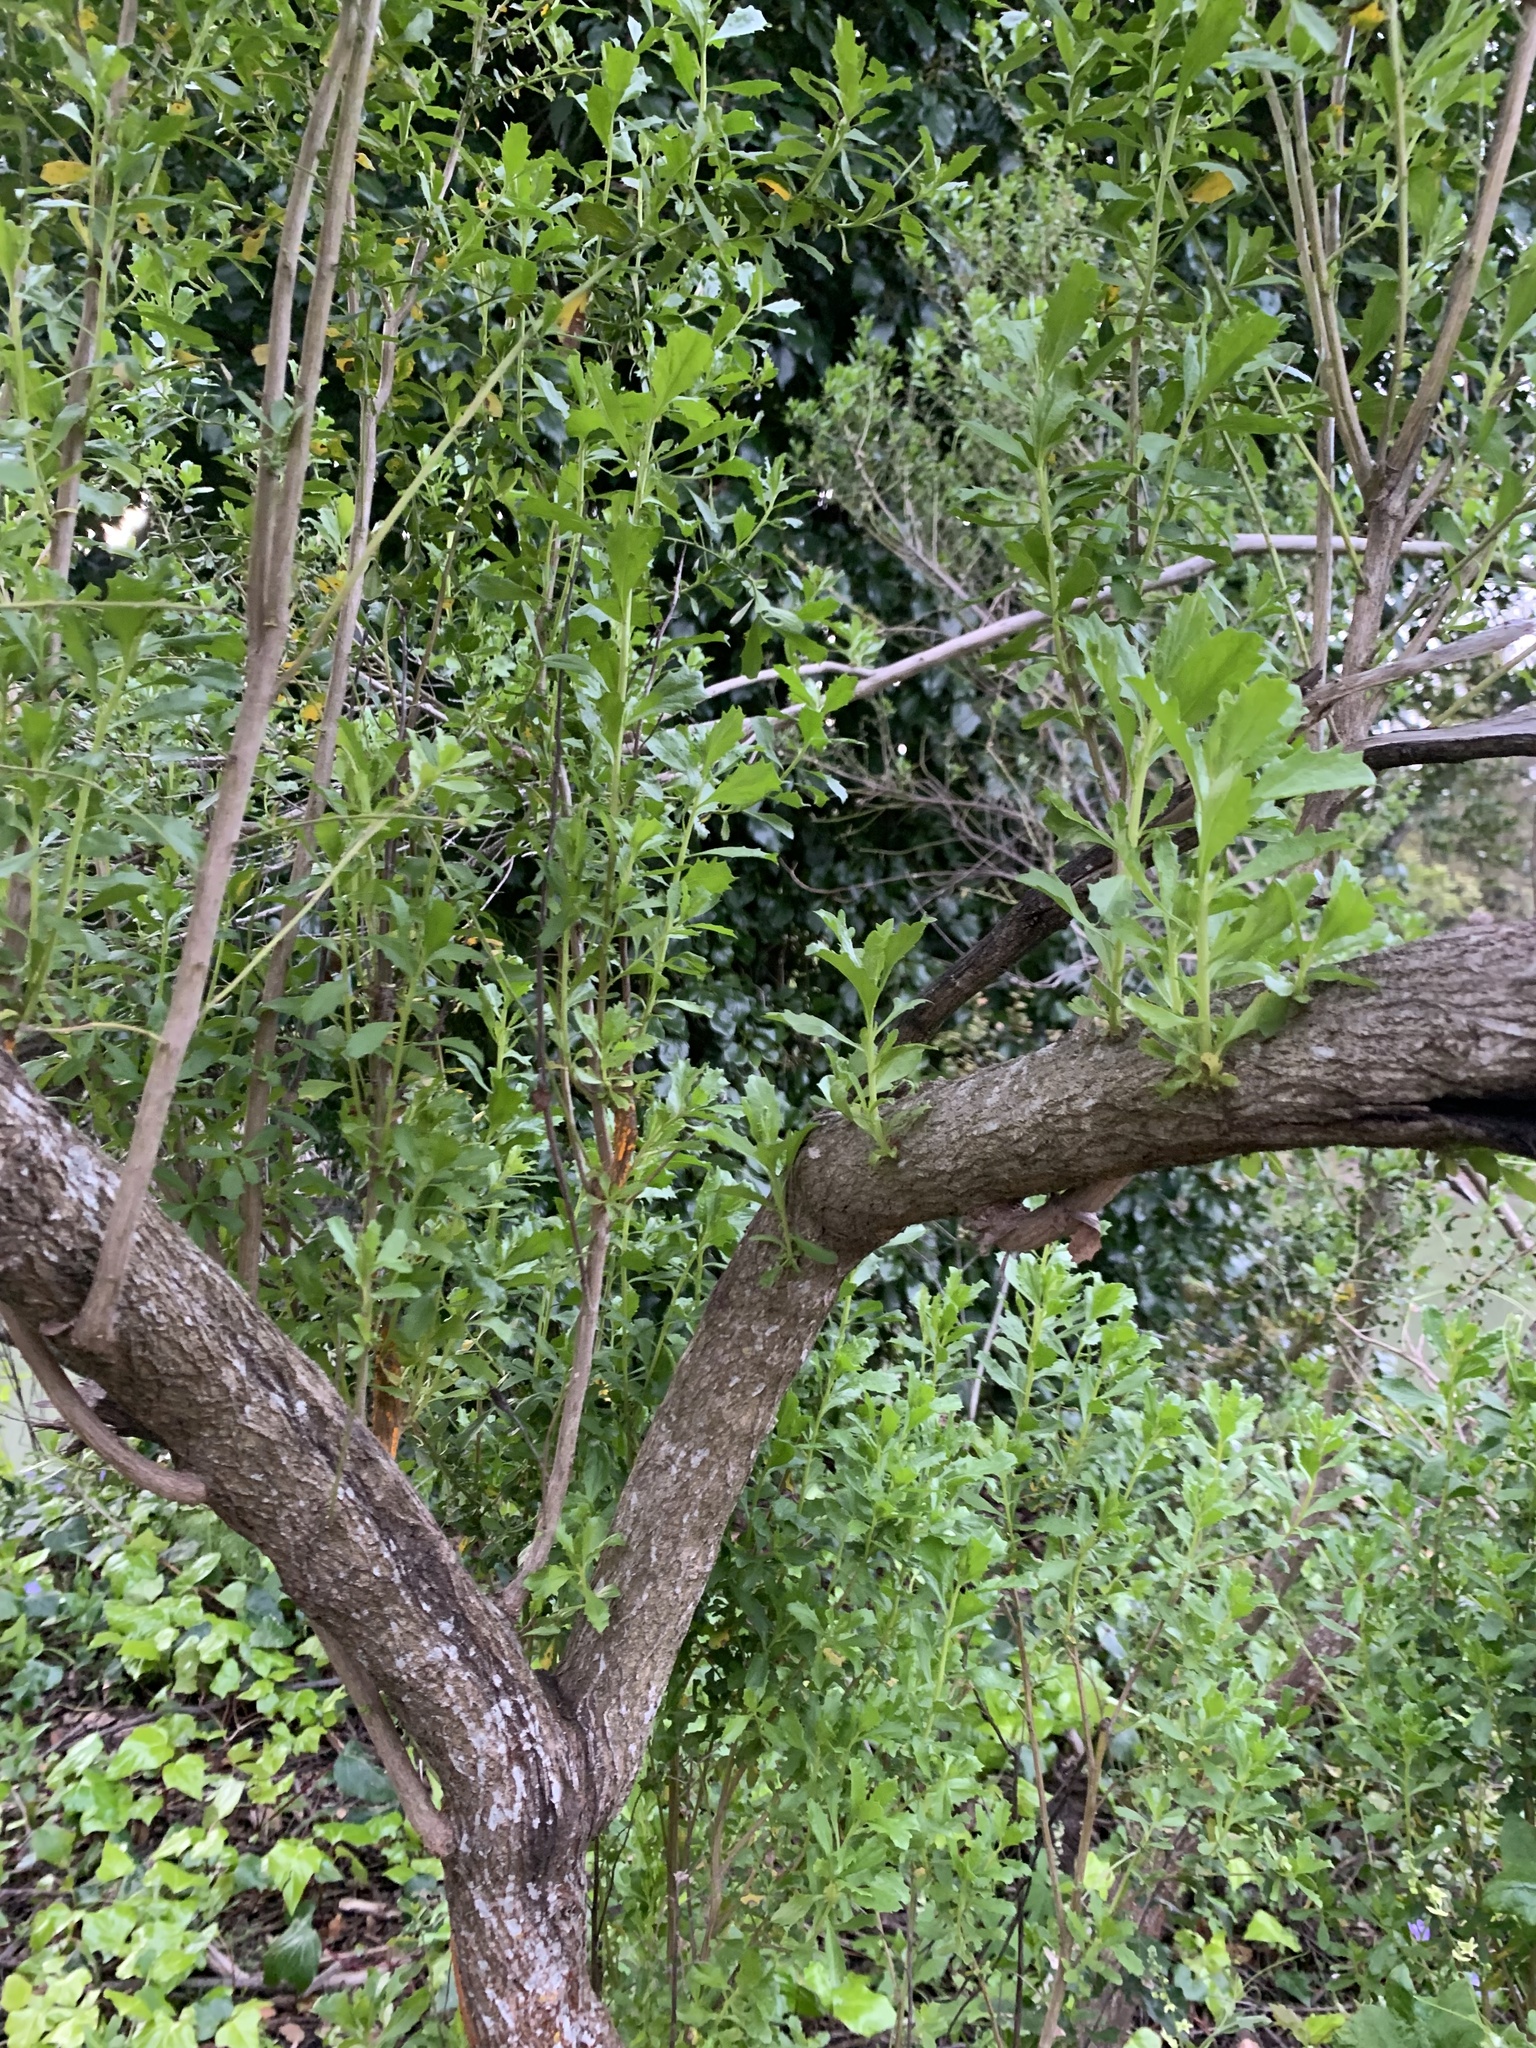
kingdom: Plantae
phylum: Tracheophyta
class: Magnoliopsida
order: Asterales
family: Asteraceae
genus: Baccharis
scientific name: Baccharis pilularis
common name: Coyotebrush
